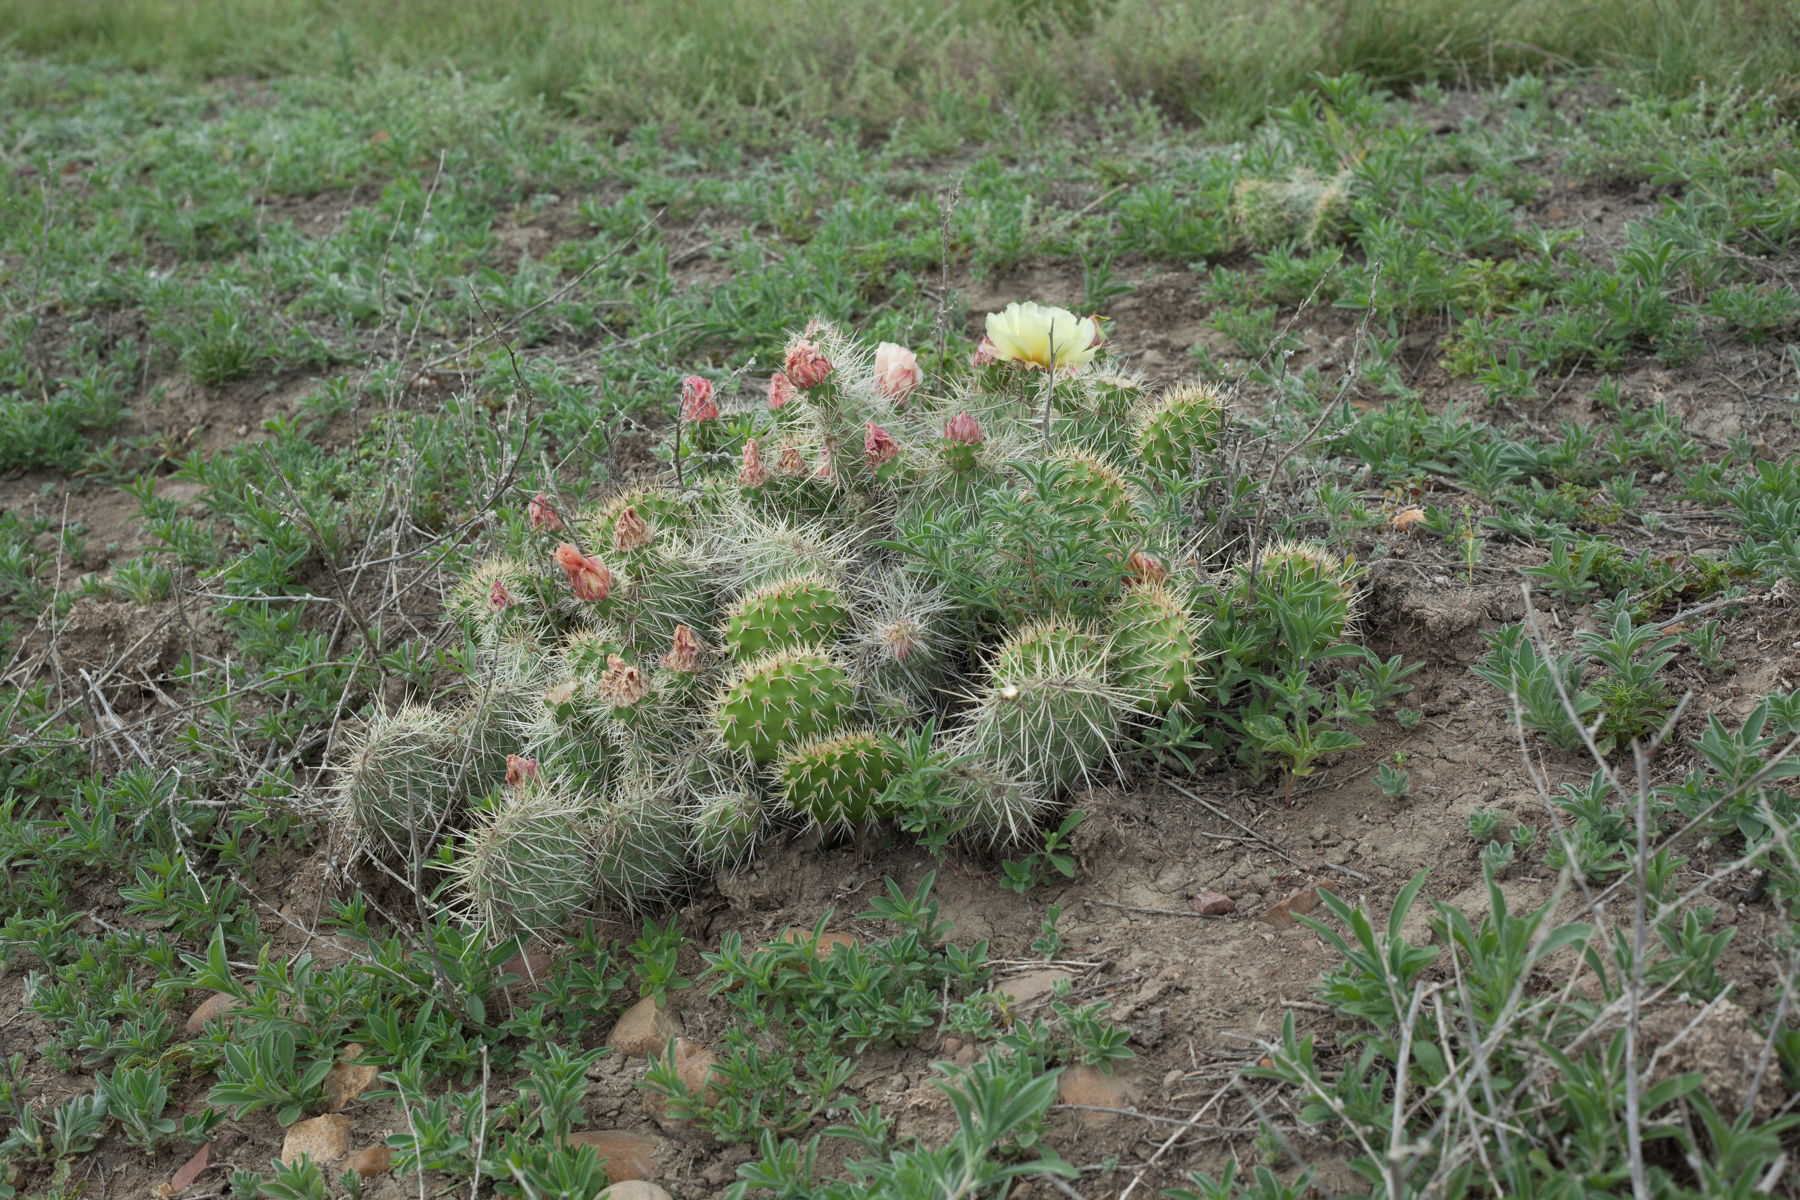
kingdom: Plantae
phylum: Tracheophyta
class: Magnoliopsida
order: Caryophyllales
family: Cactaceae
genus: Opuntia
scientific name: Opuntia polyacantha
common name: Plains prickly-pear
